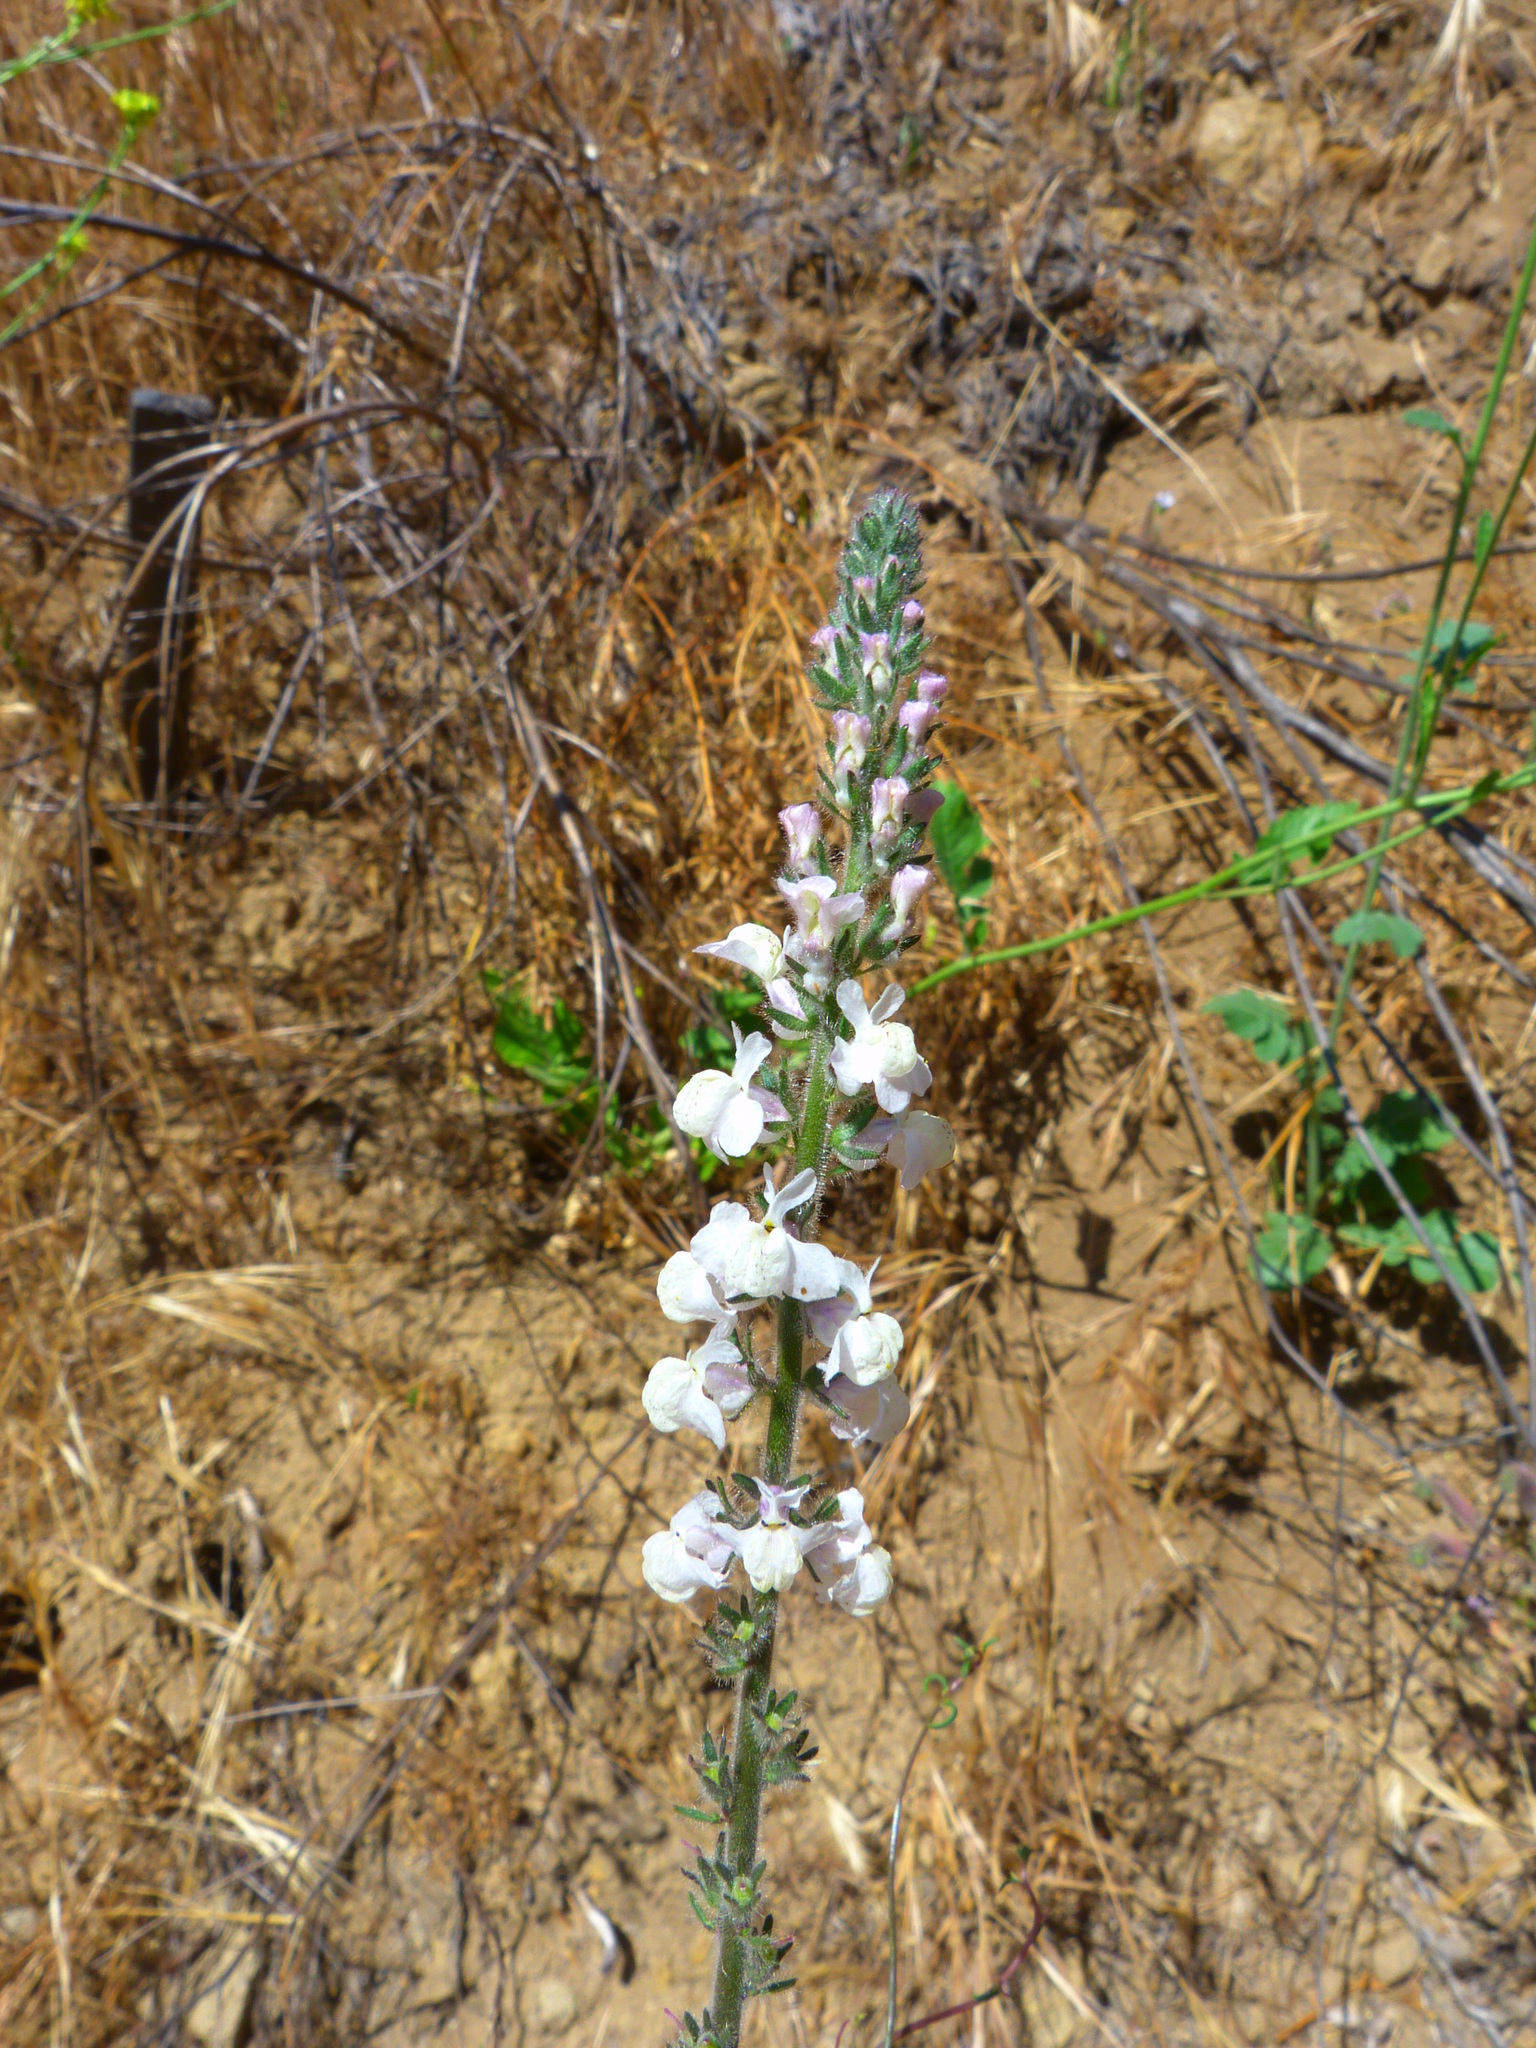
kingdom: Plantae
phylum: Tracheophyta
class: Magnoliopsida
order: Lamiales
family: Plantaginaceae
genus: Sairocarpus
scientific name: Sairocarpus coulterianus
